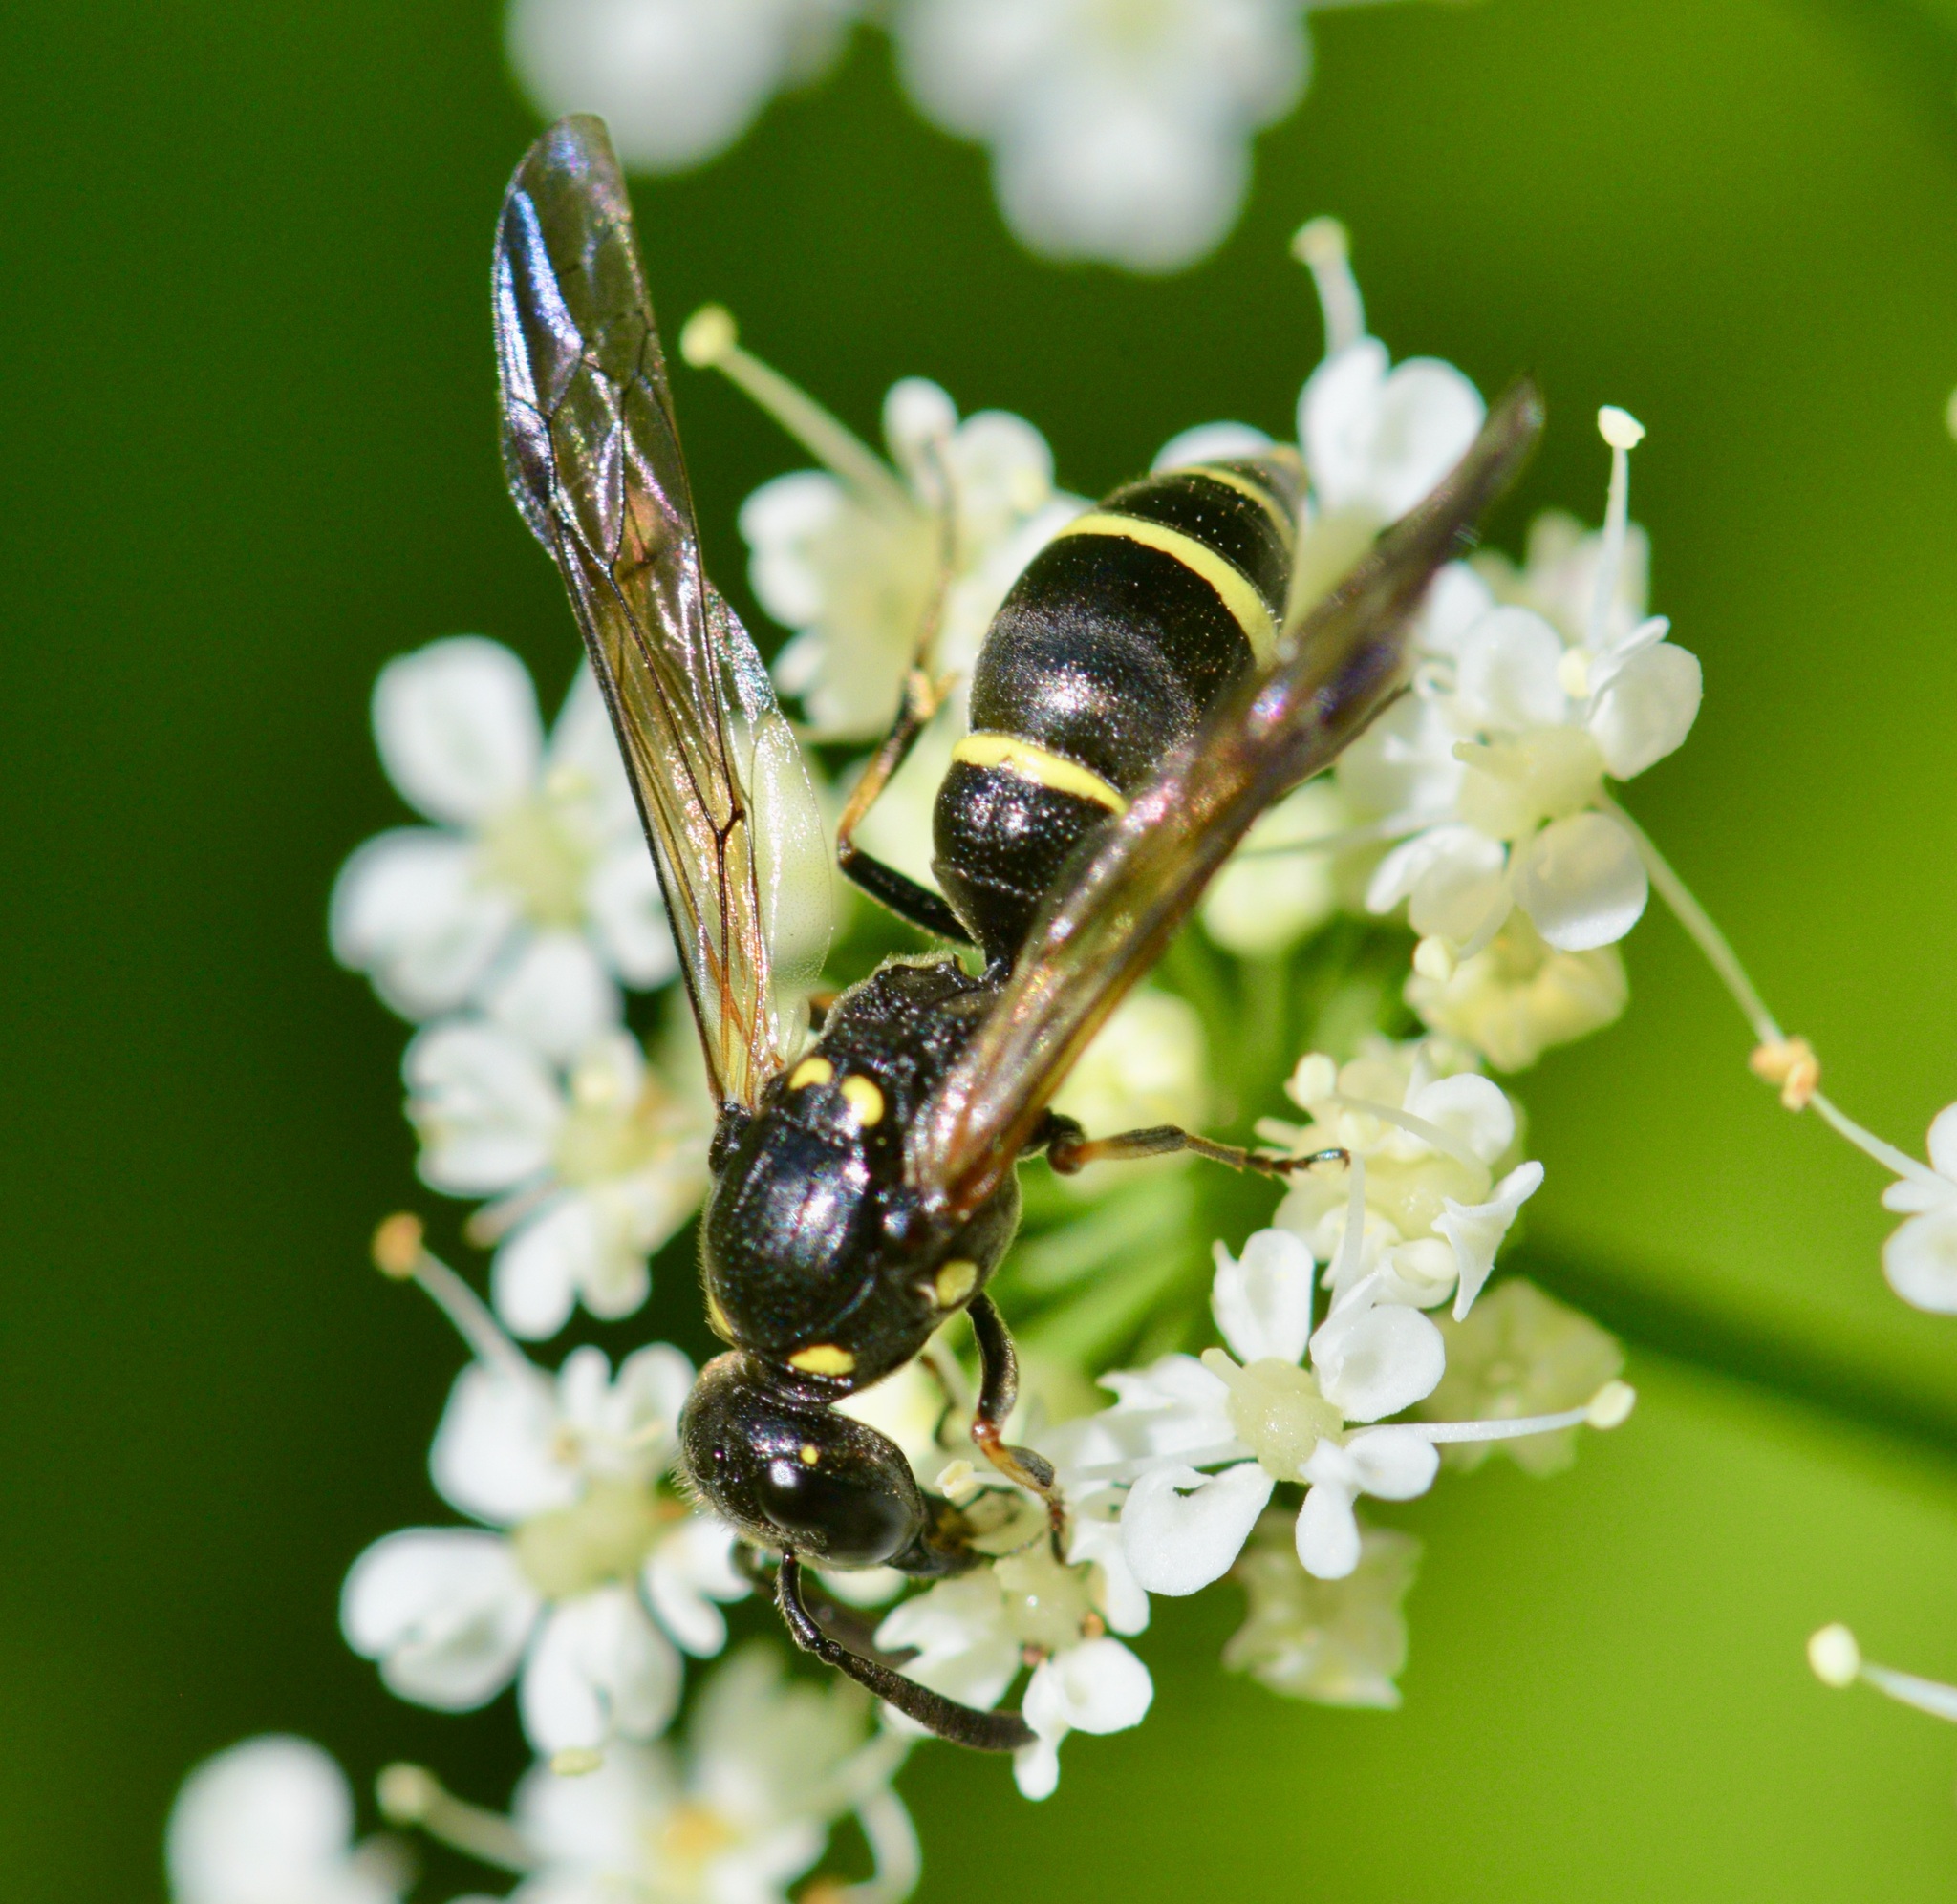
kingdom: Animalia
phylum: Arthropoda
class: Insecta
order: Hymenoptera
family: Eumenidae
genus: Symmorphus
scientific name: Symmorphus
